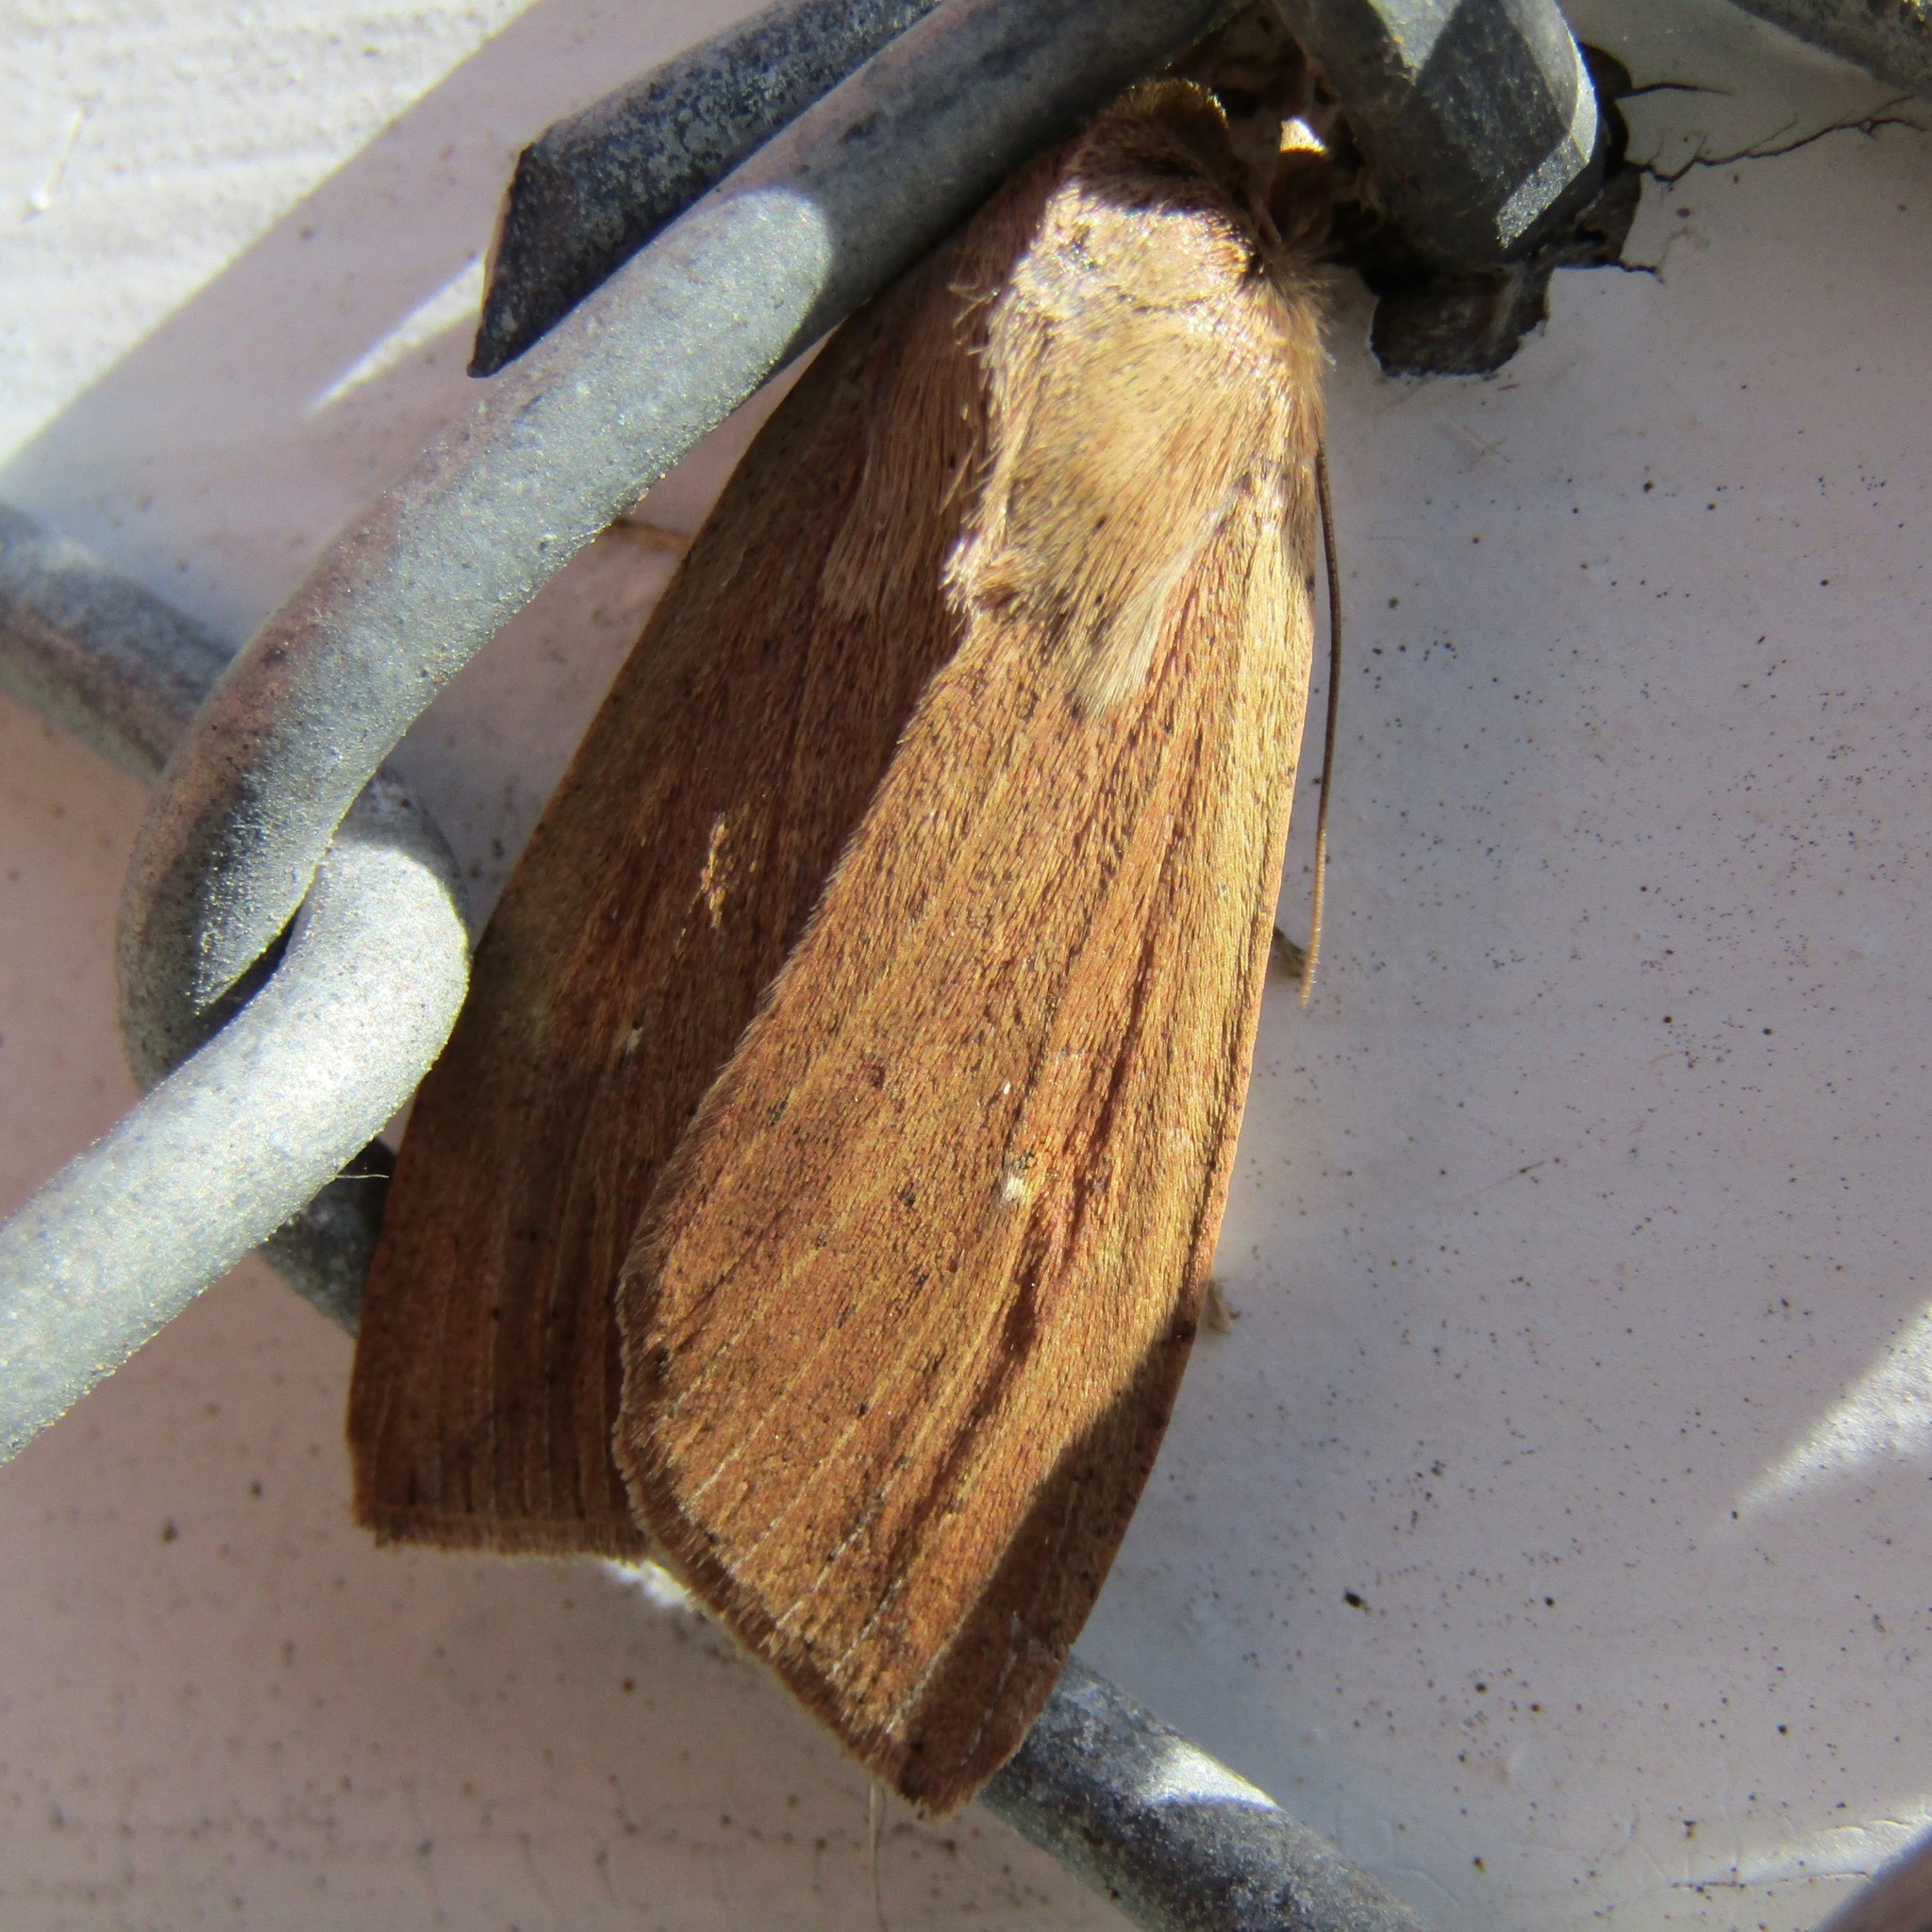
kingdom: Animalia
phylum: Arthropoda
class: Insecta
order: Lepidoptera
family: Noctuidae
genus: Mythimna
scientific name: Mythimna separata
